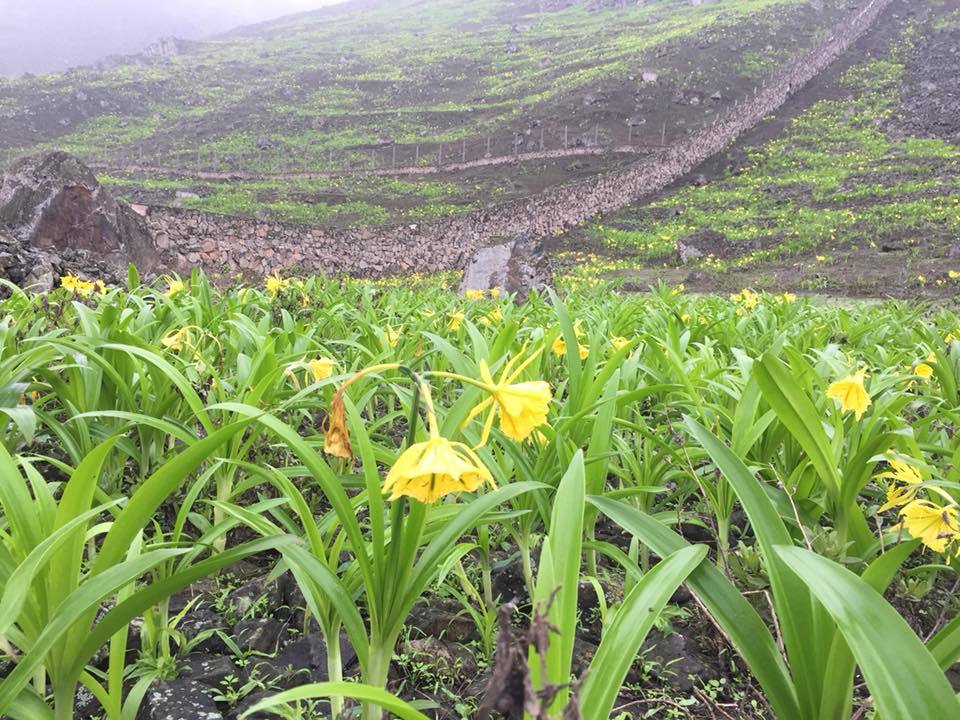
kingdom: Plantae
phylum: Tracheophyta
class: Liliopsida
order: Asparagales
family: Amaryllidaceae
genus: Ismene
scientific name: Ismene amancaes
